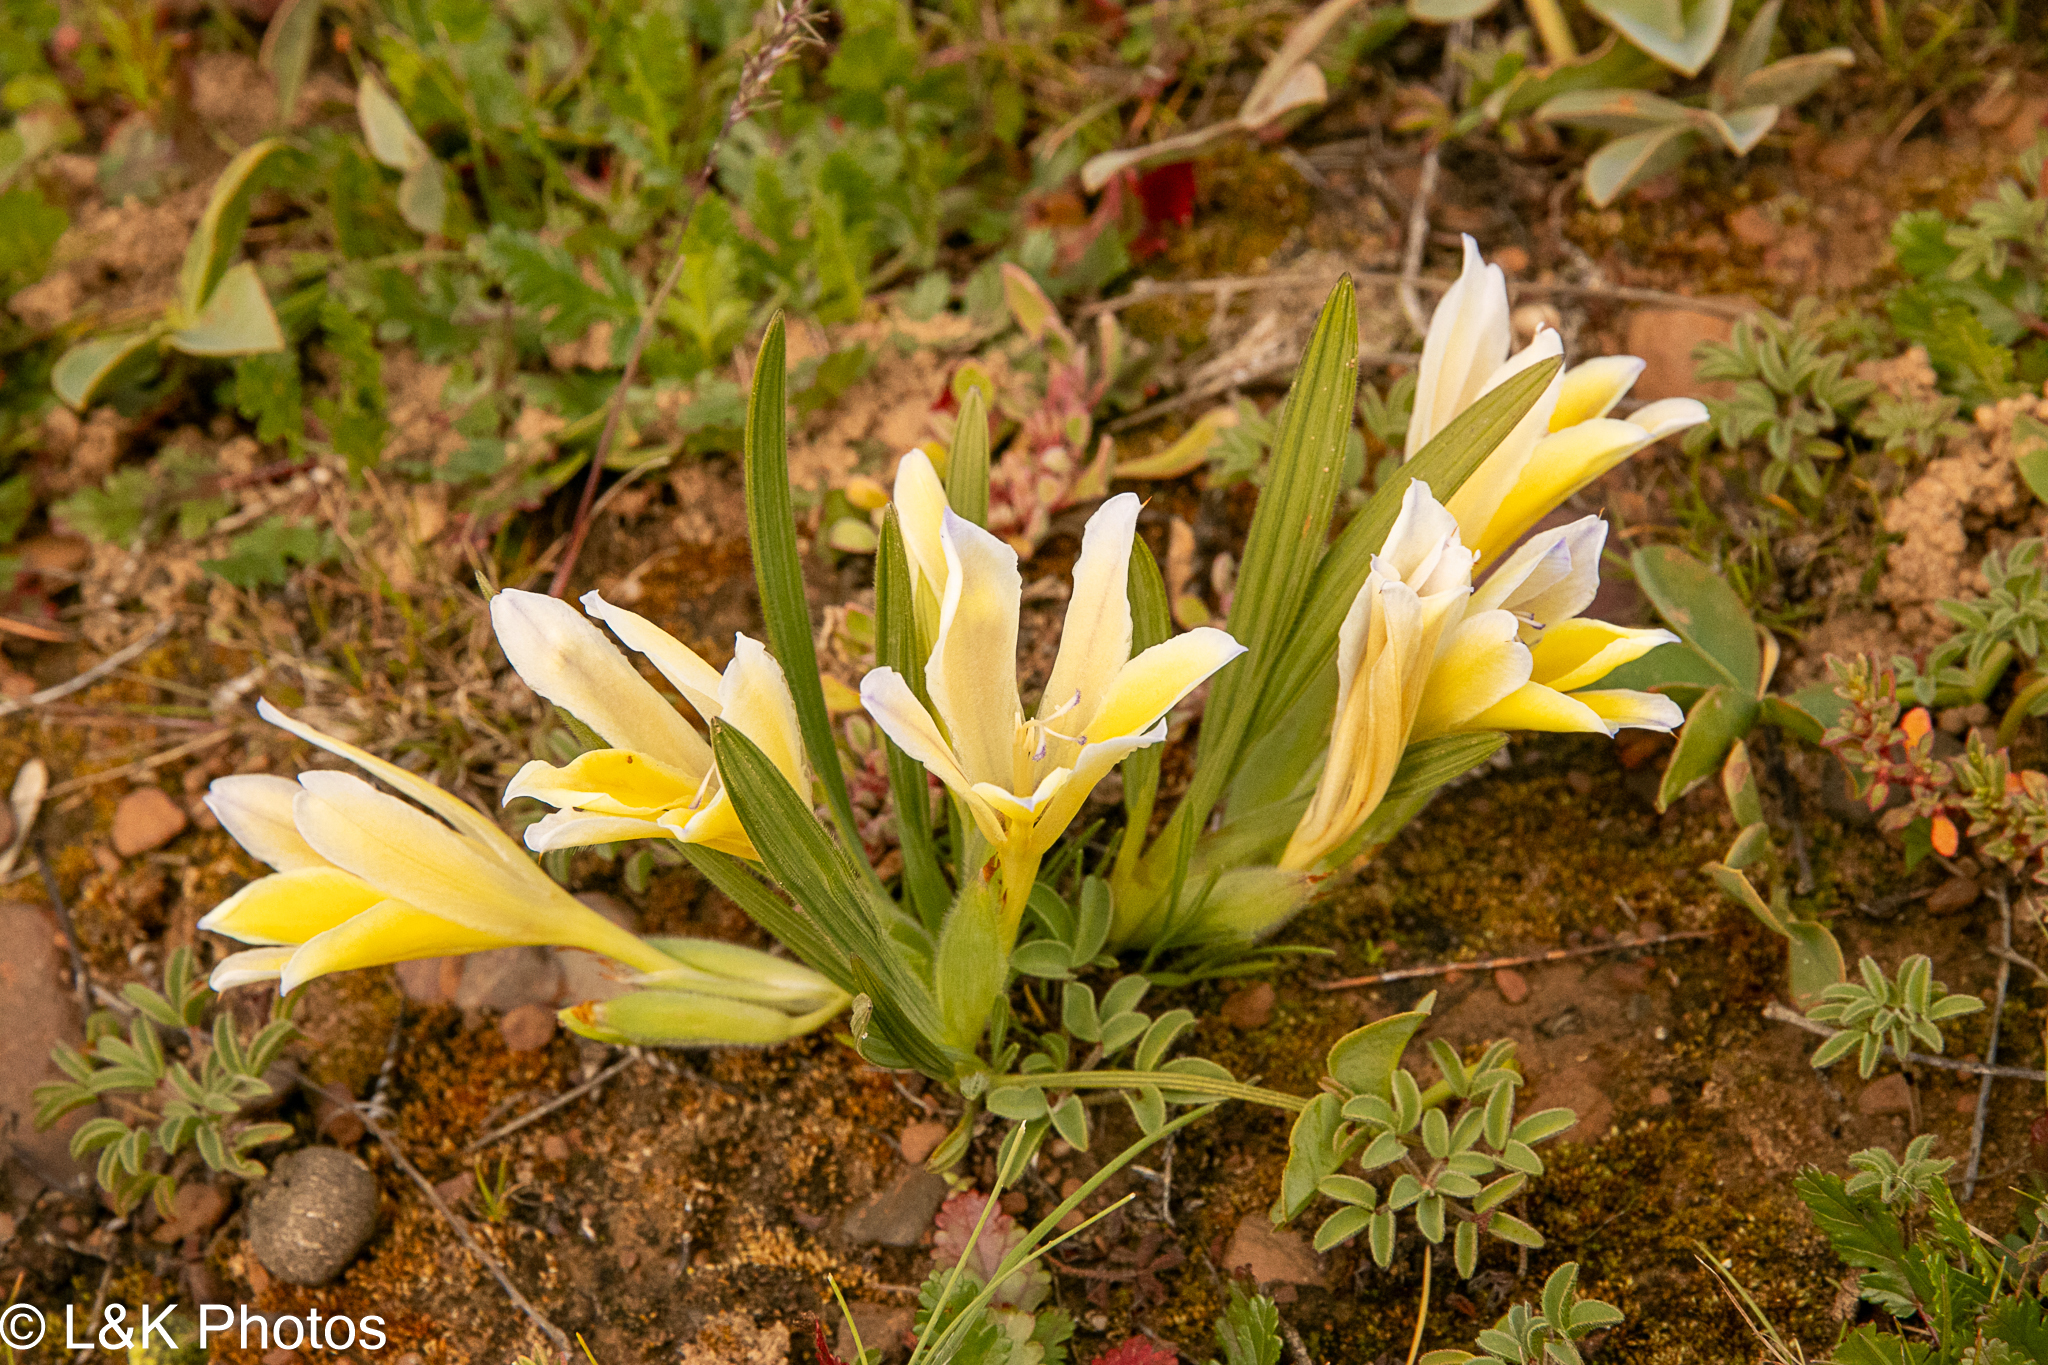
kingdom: Plantae
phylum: Tracheophyta
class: Liliopsida
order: Asparagales
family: Iridaceae
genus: Babiana
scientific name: Babiana vanzijliae
